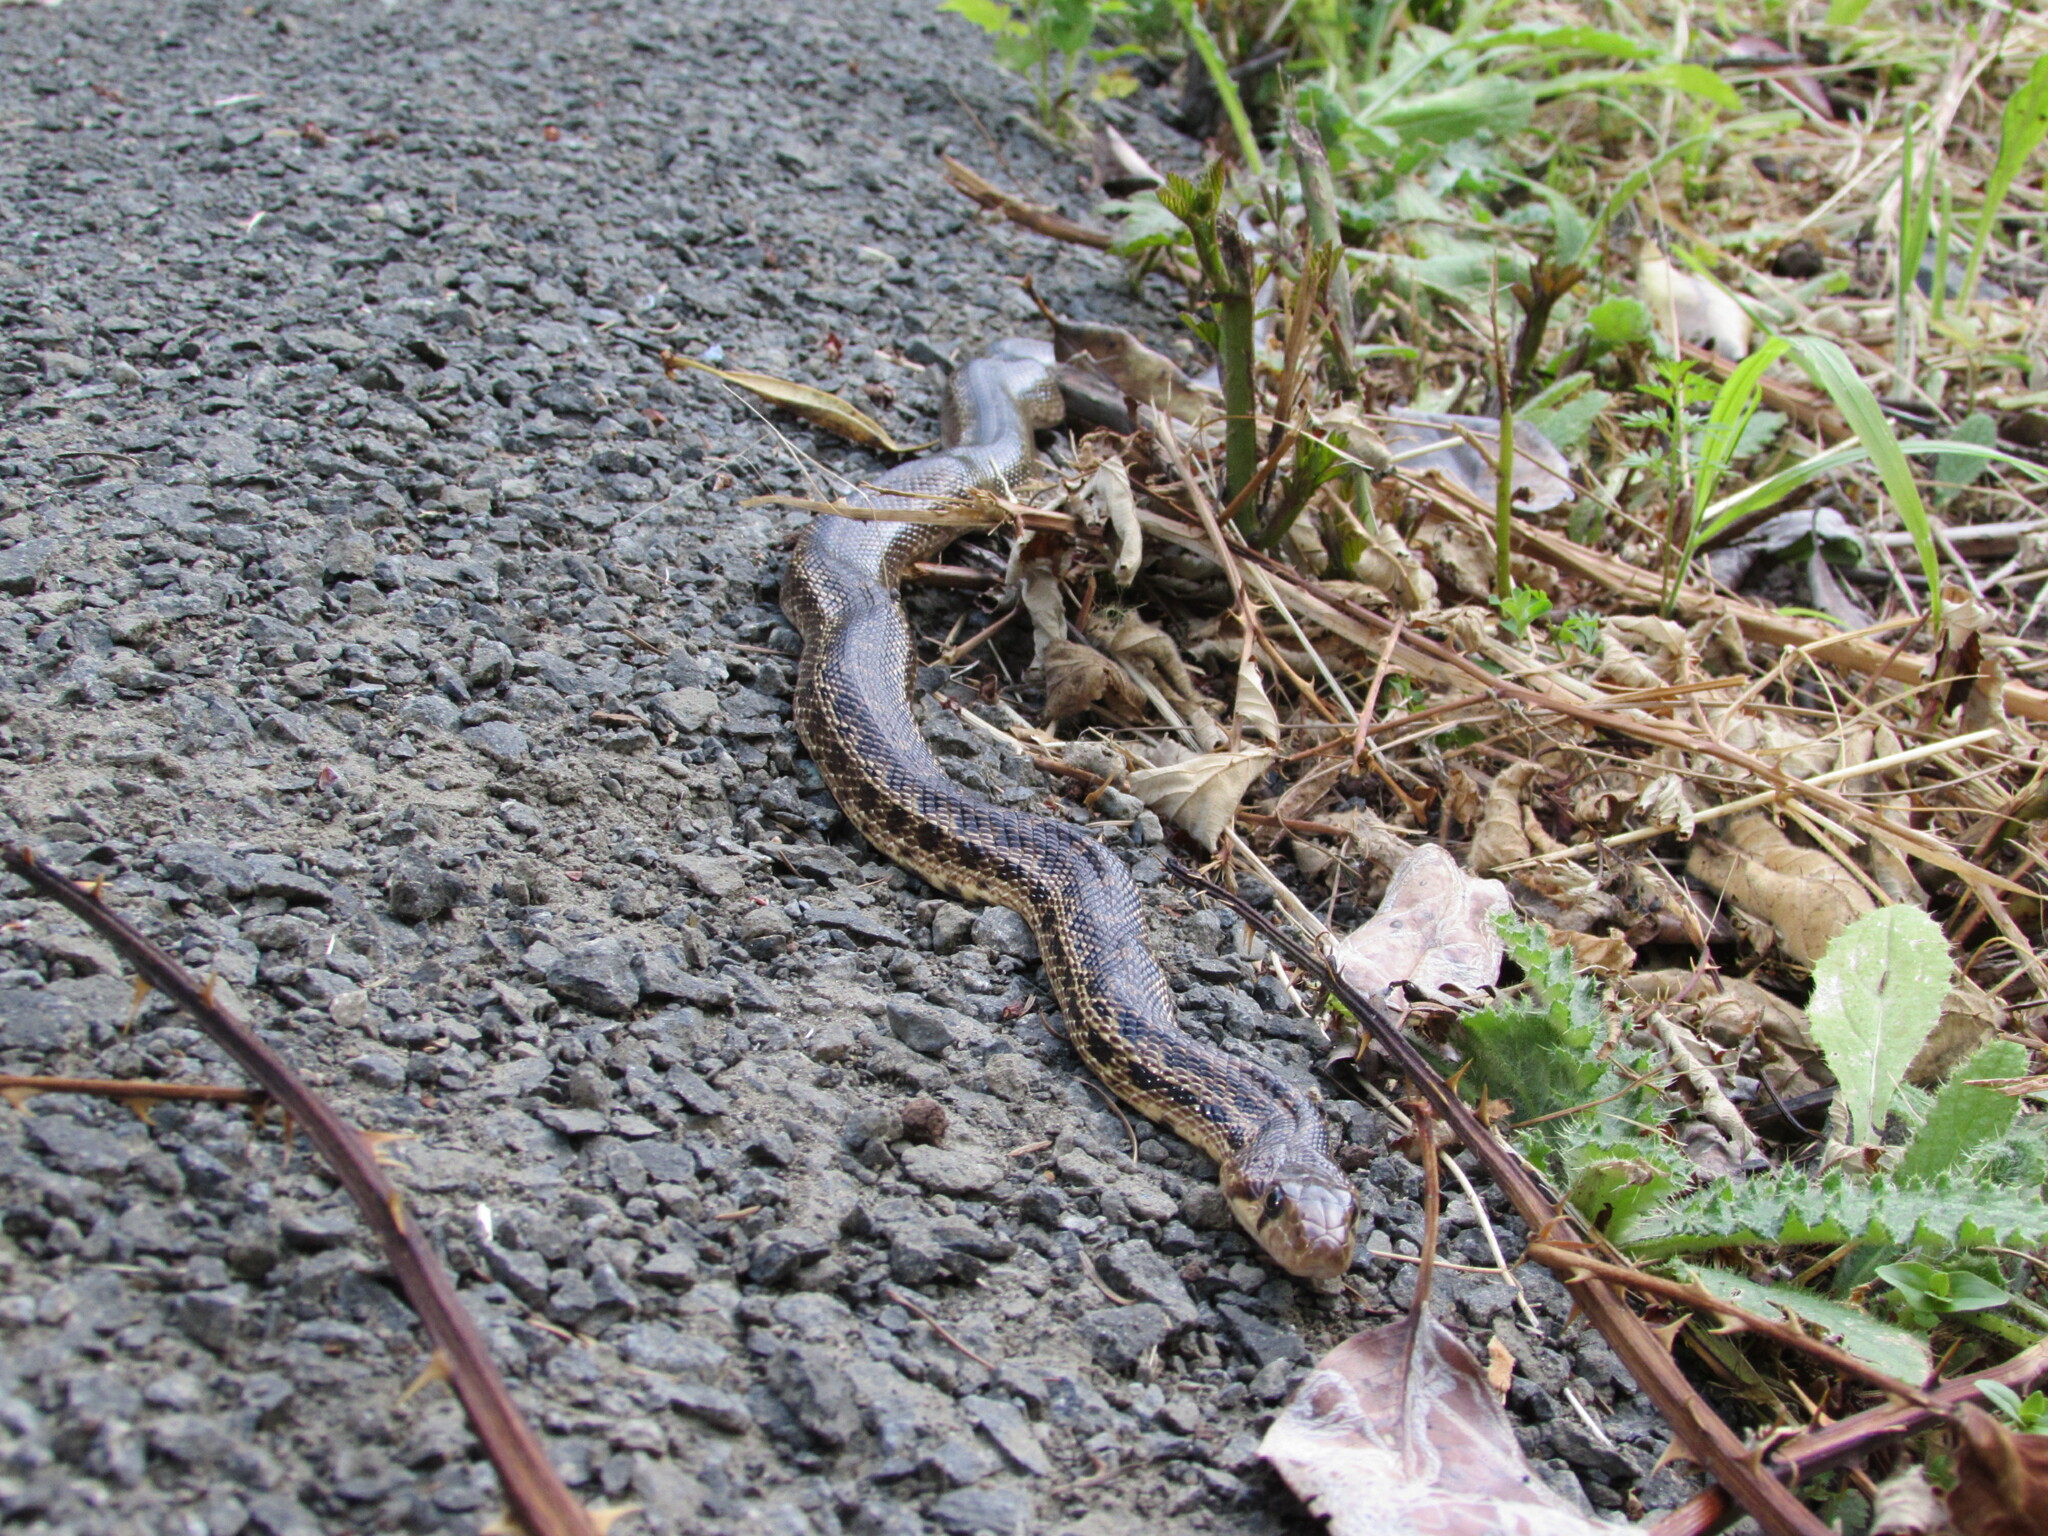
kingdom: Animalia
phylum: Chordata
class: Squamata
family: Colubridae
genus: Pituophis
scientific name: Pituophis catenifer
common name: Gopher snake
